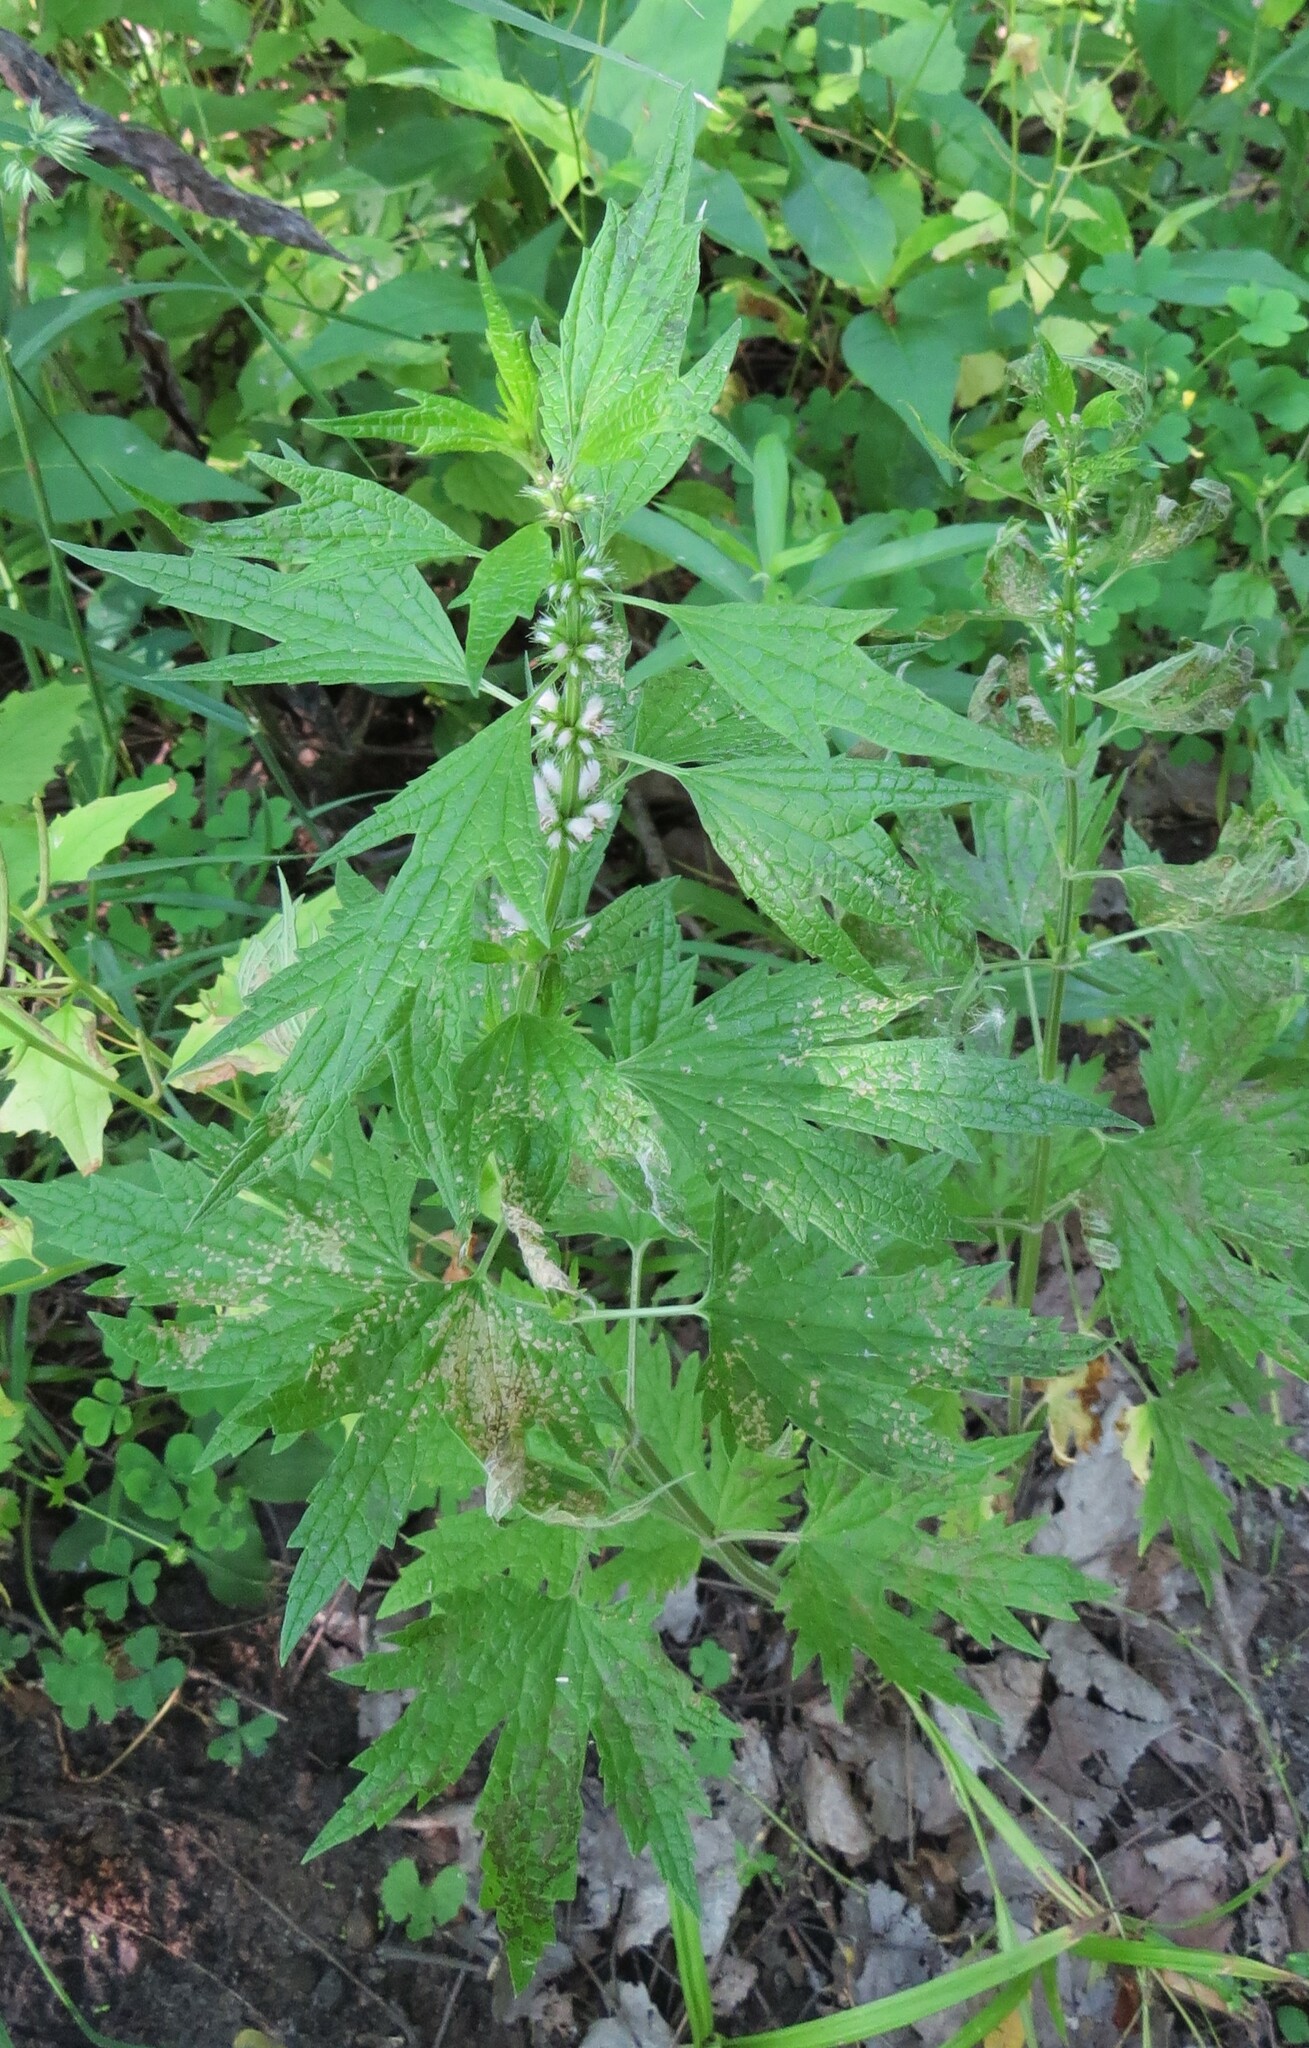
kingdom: Plantae
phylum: Tracheophyta
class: Magnoliopsida
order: Lamiales
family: Lamiaceae
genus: Leonurus
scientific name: Leonurus cardiaca
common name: Motherwort
